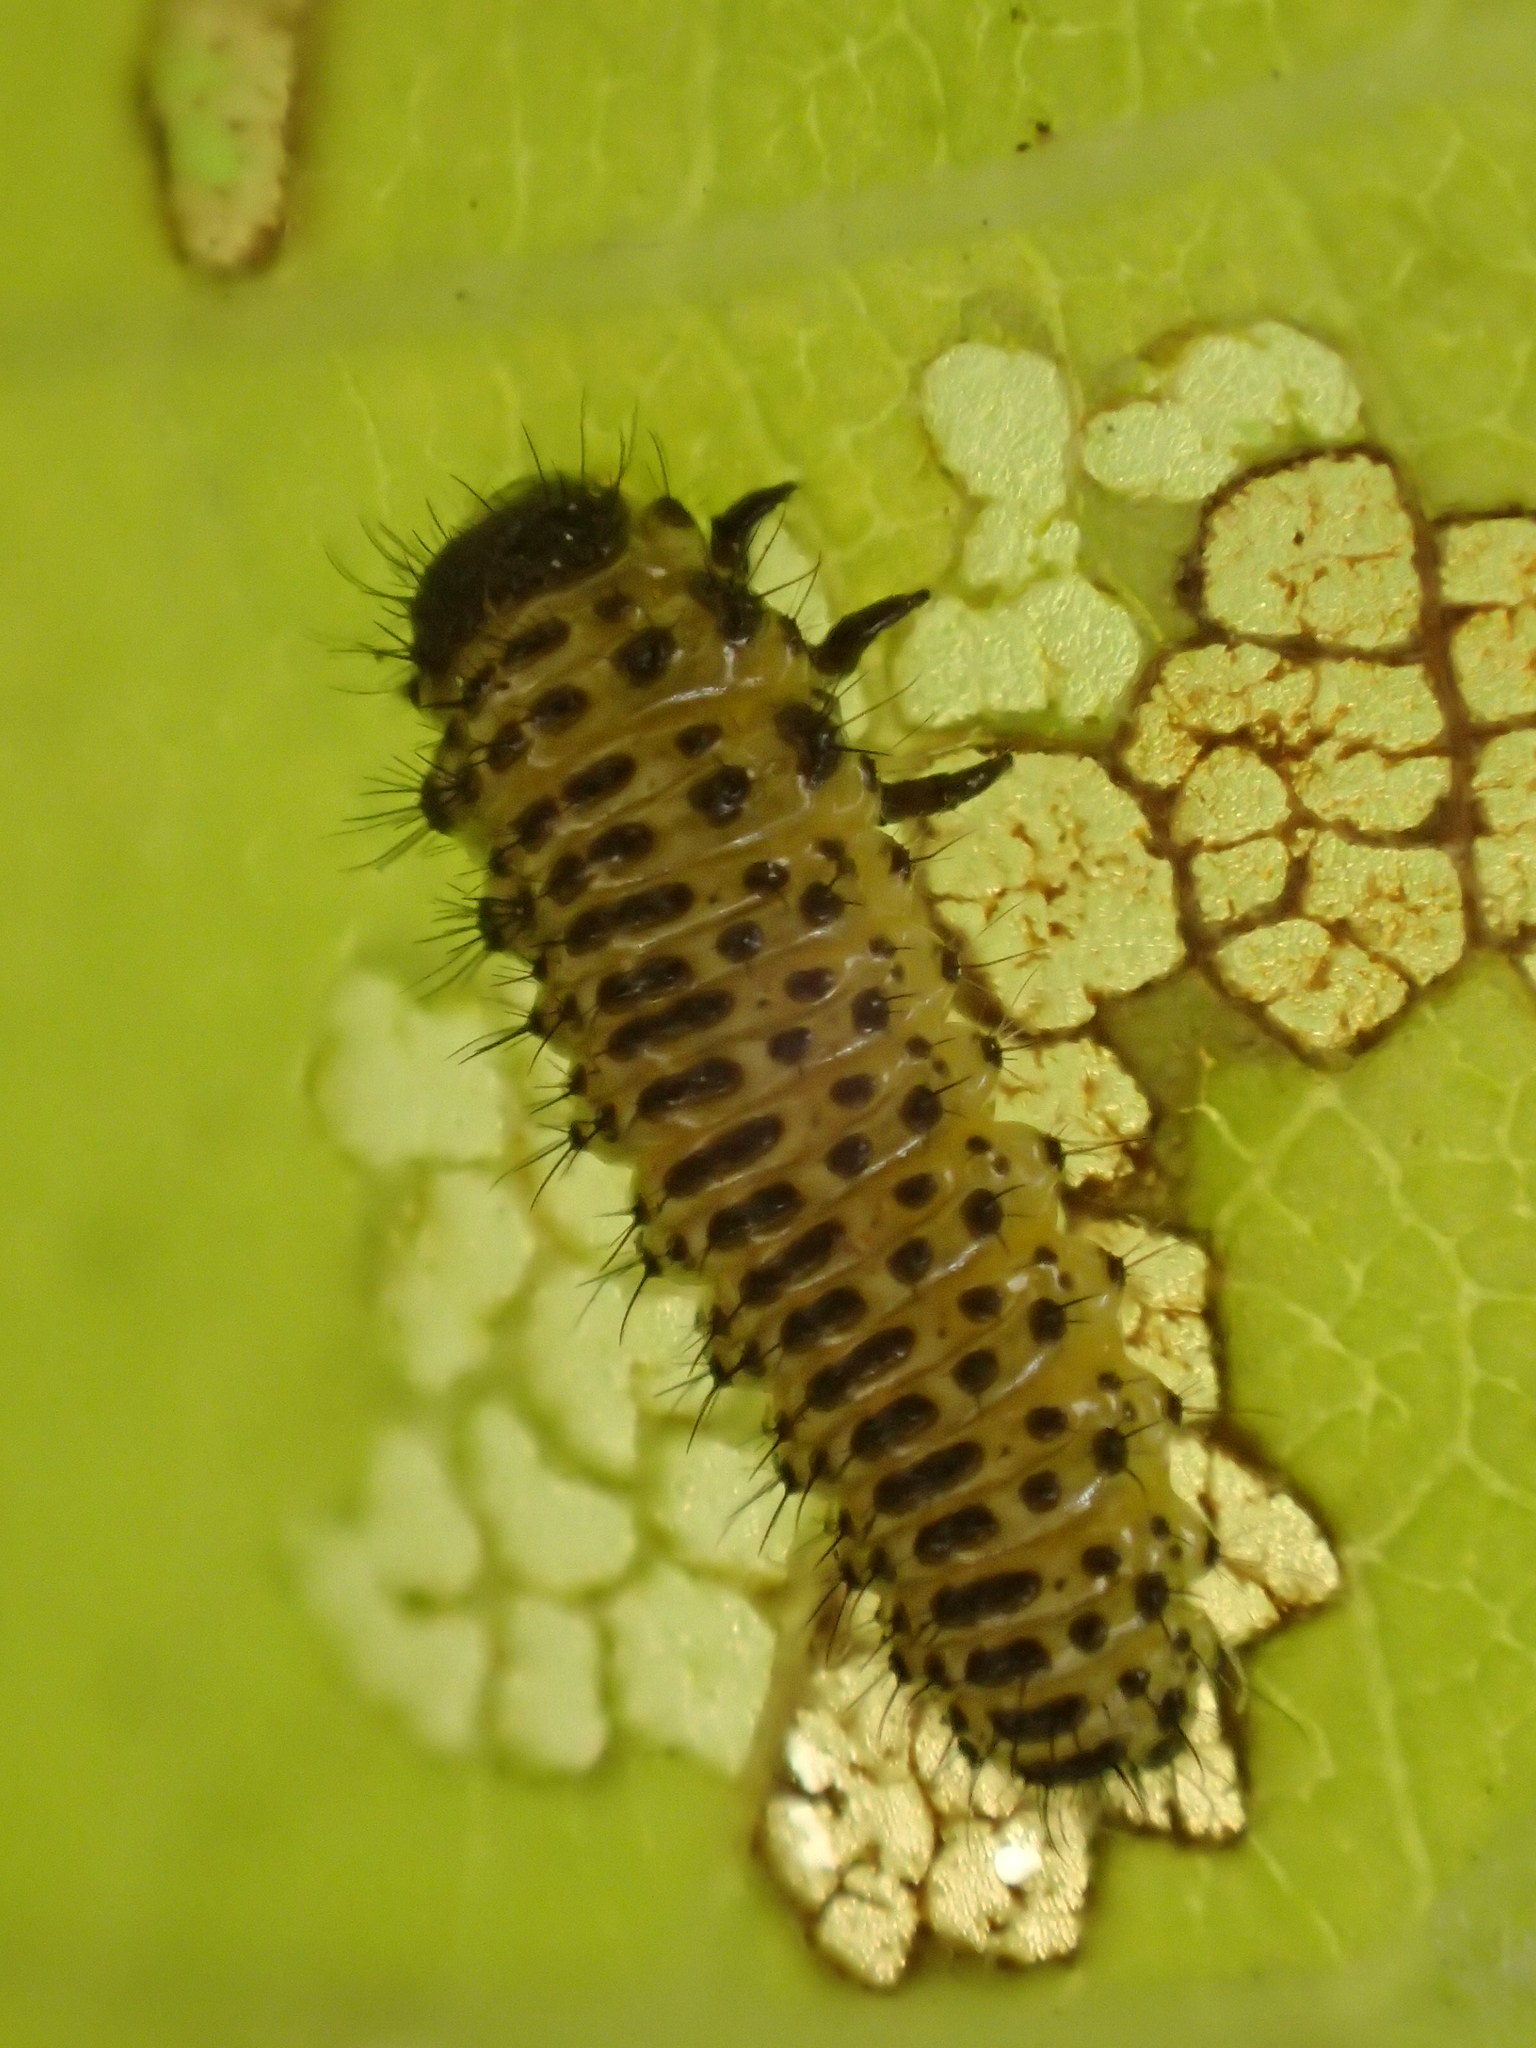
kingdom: Animalia
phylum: Arthropoda
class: Insecta
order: Coleoptera
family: Chrysomelidae
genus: Xanthogaleruca
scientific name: Xanthogaleruca luteola
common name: Elm leaf beetle
